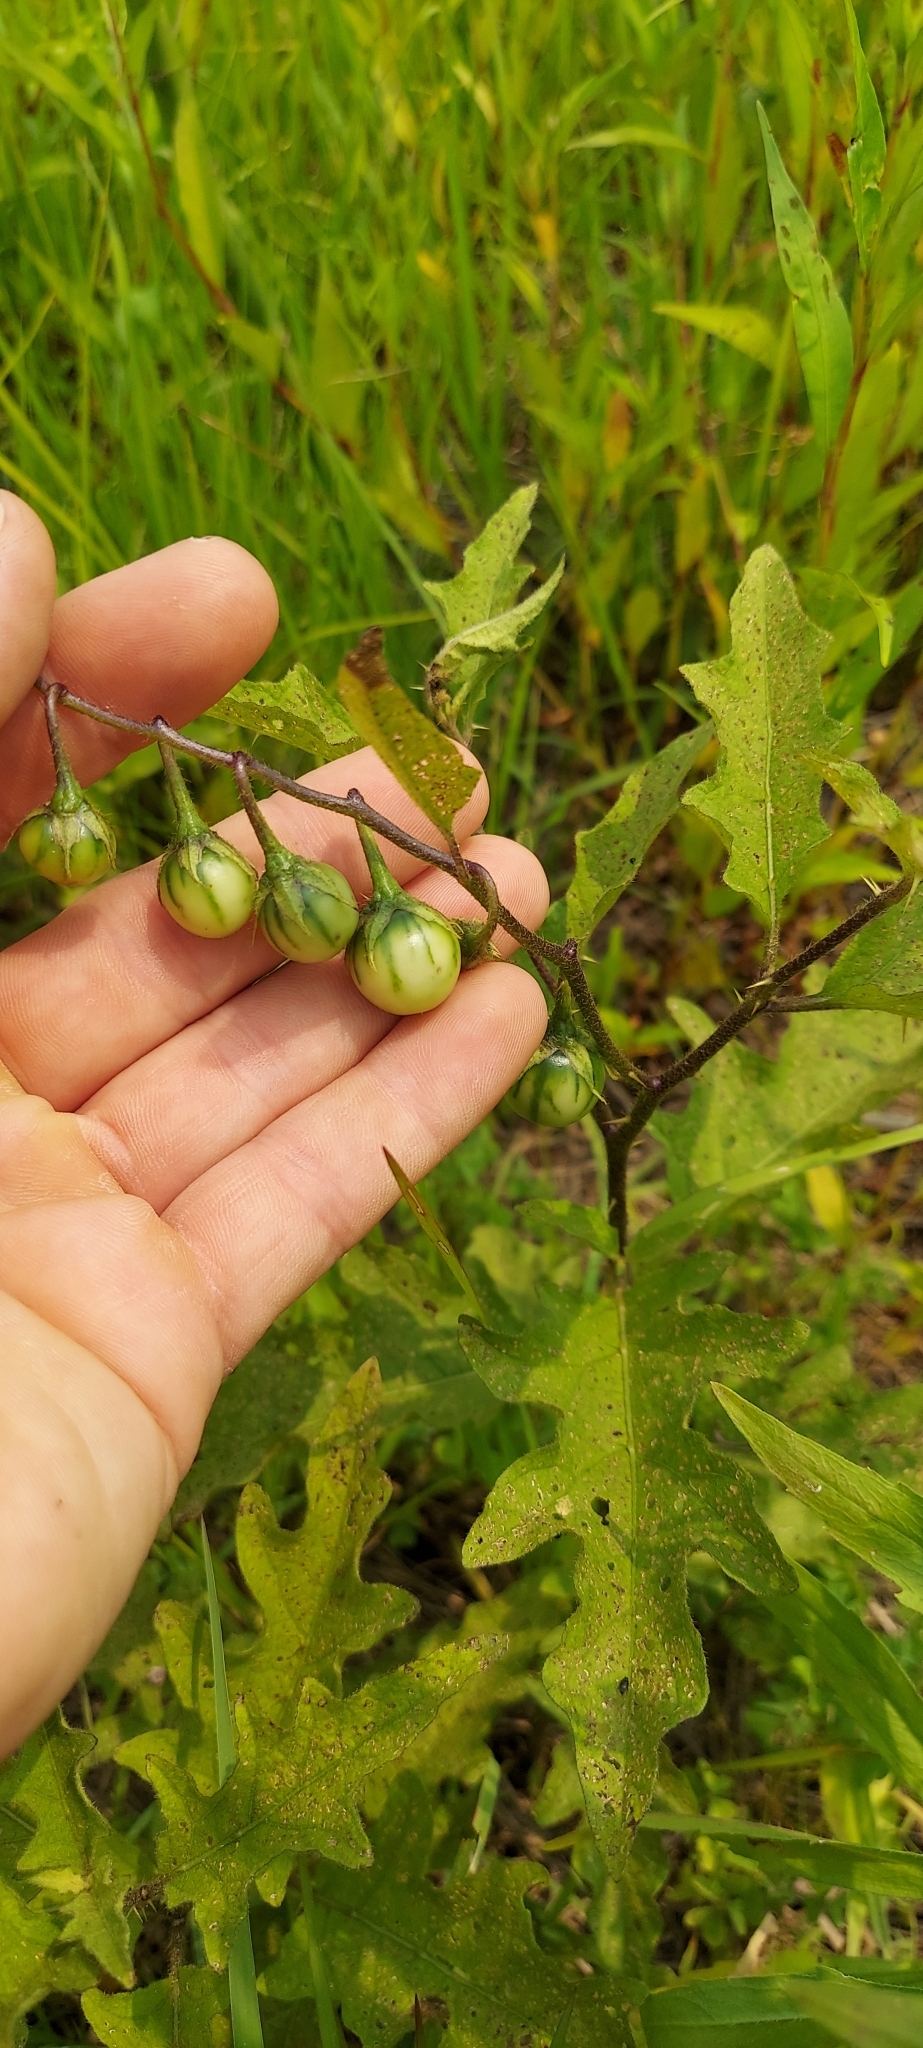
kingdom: Plantae
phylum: Tracheophyta
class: Magnoliopsida
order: Solanales
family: Solanaceae
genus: Solanum
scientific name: Solanum carolinense
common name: Horse-nettle
